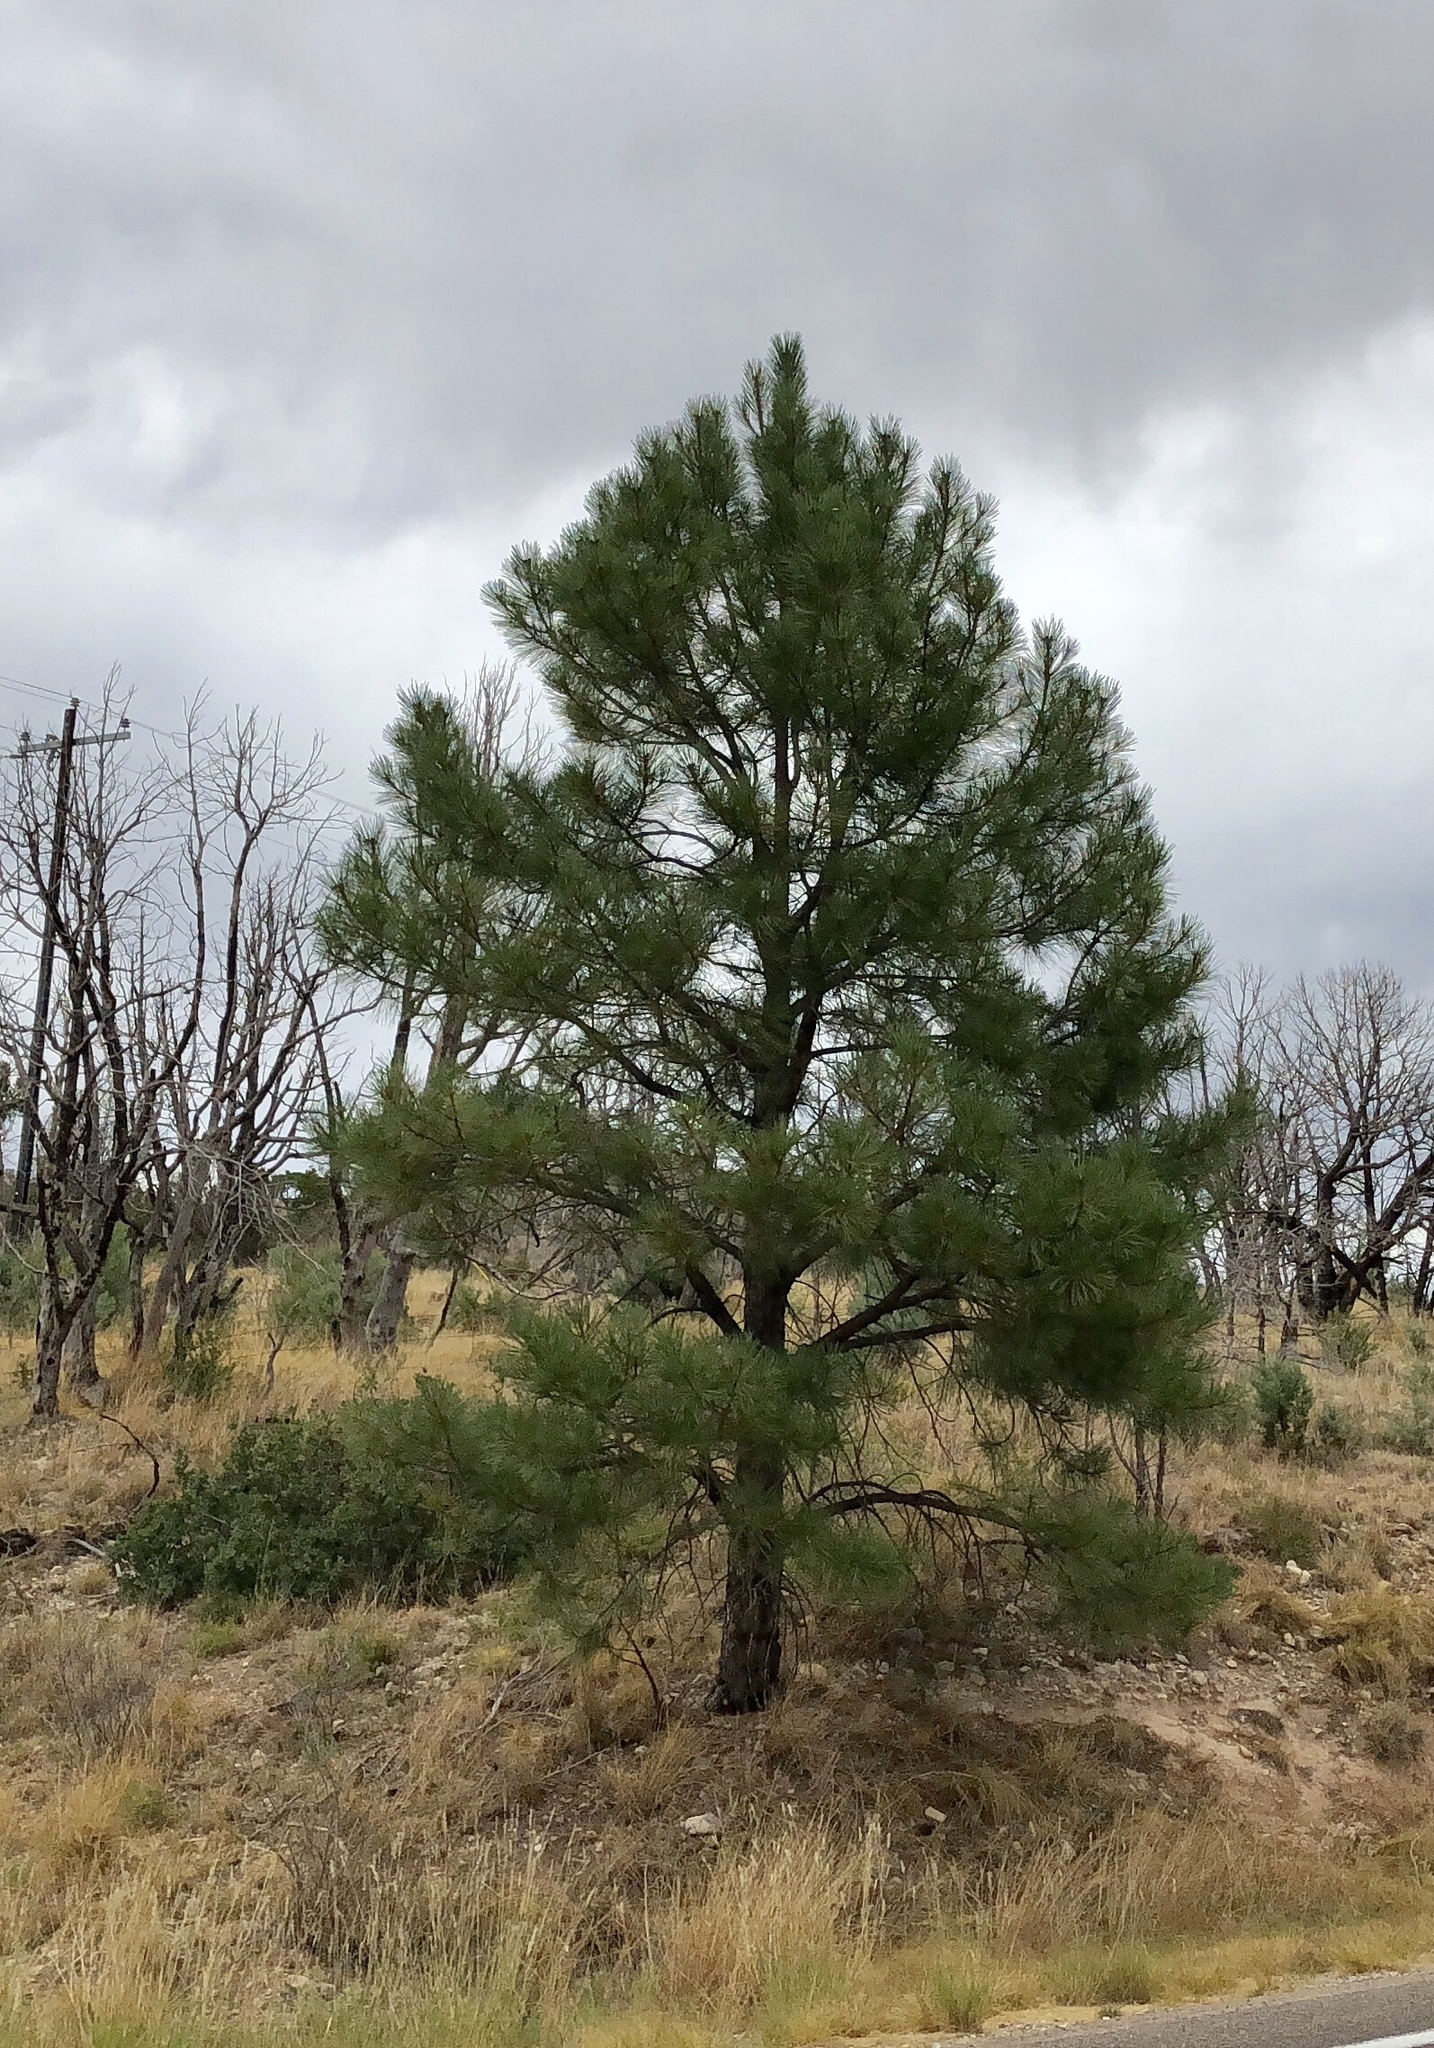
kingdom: Plantae
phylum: Tracheophyta
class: Pinopsida
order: Pinales
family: Pinaceae
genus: Pinus
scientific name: Pinus ponderosa
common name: Western yellow-pine
